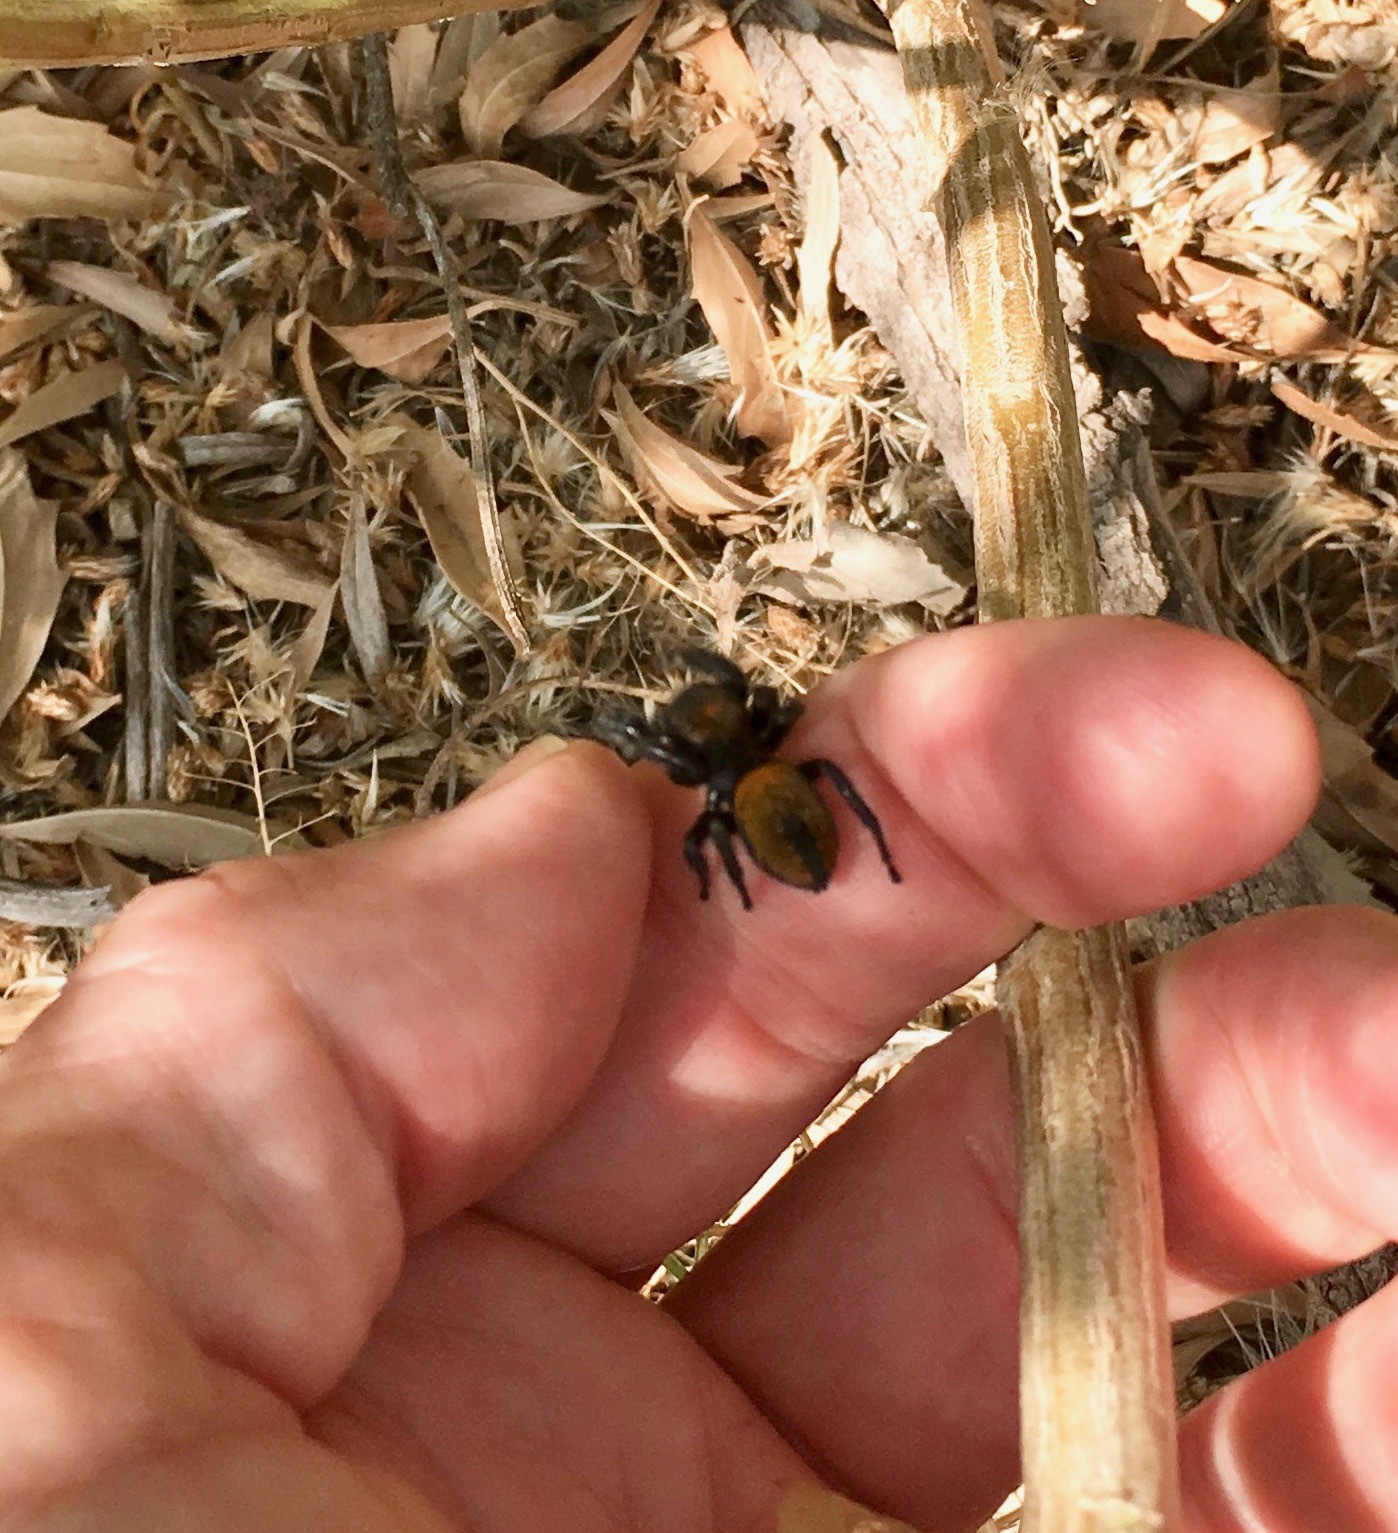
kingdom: Animalia
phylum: Arthropoda
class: Arachnida
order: Araneae
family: Salticidae
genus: Phidippus
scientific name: Phidippus apacheanus
